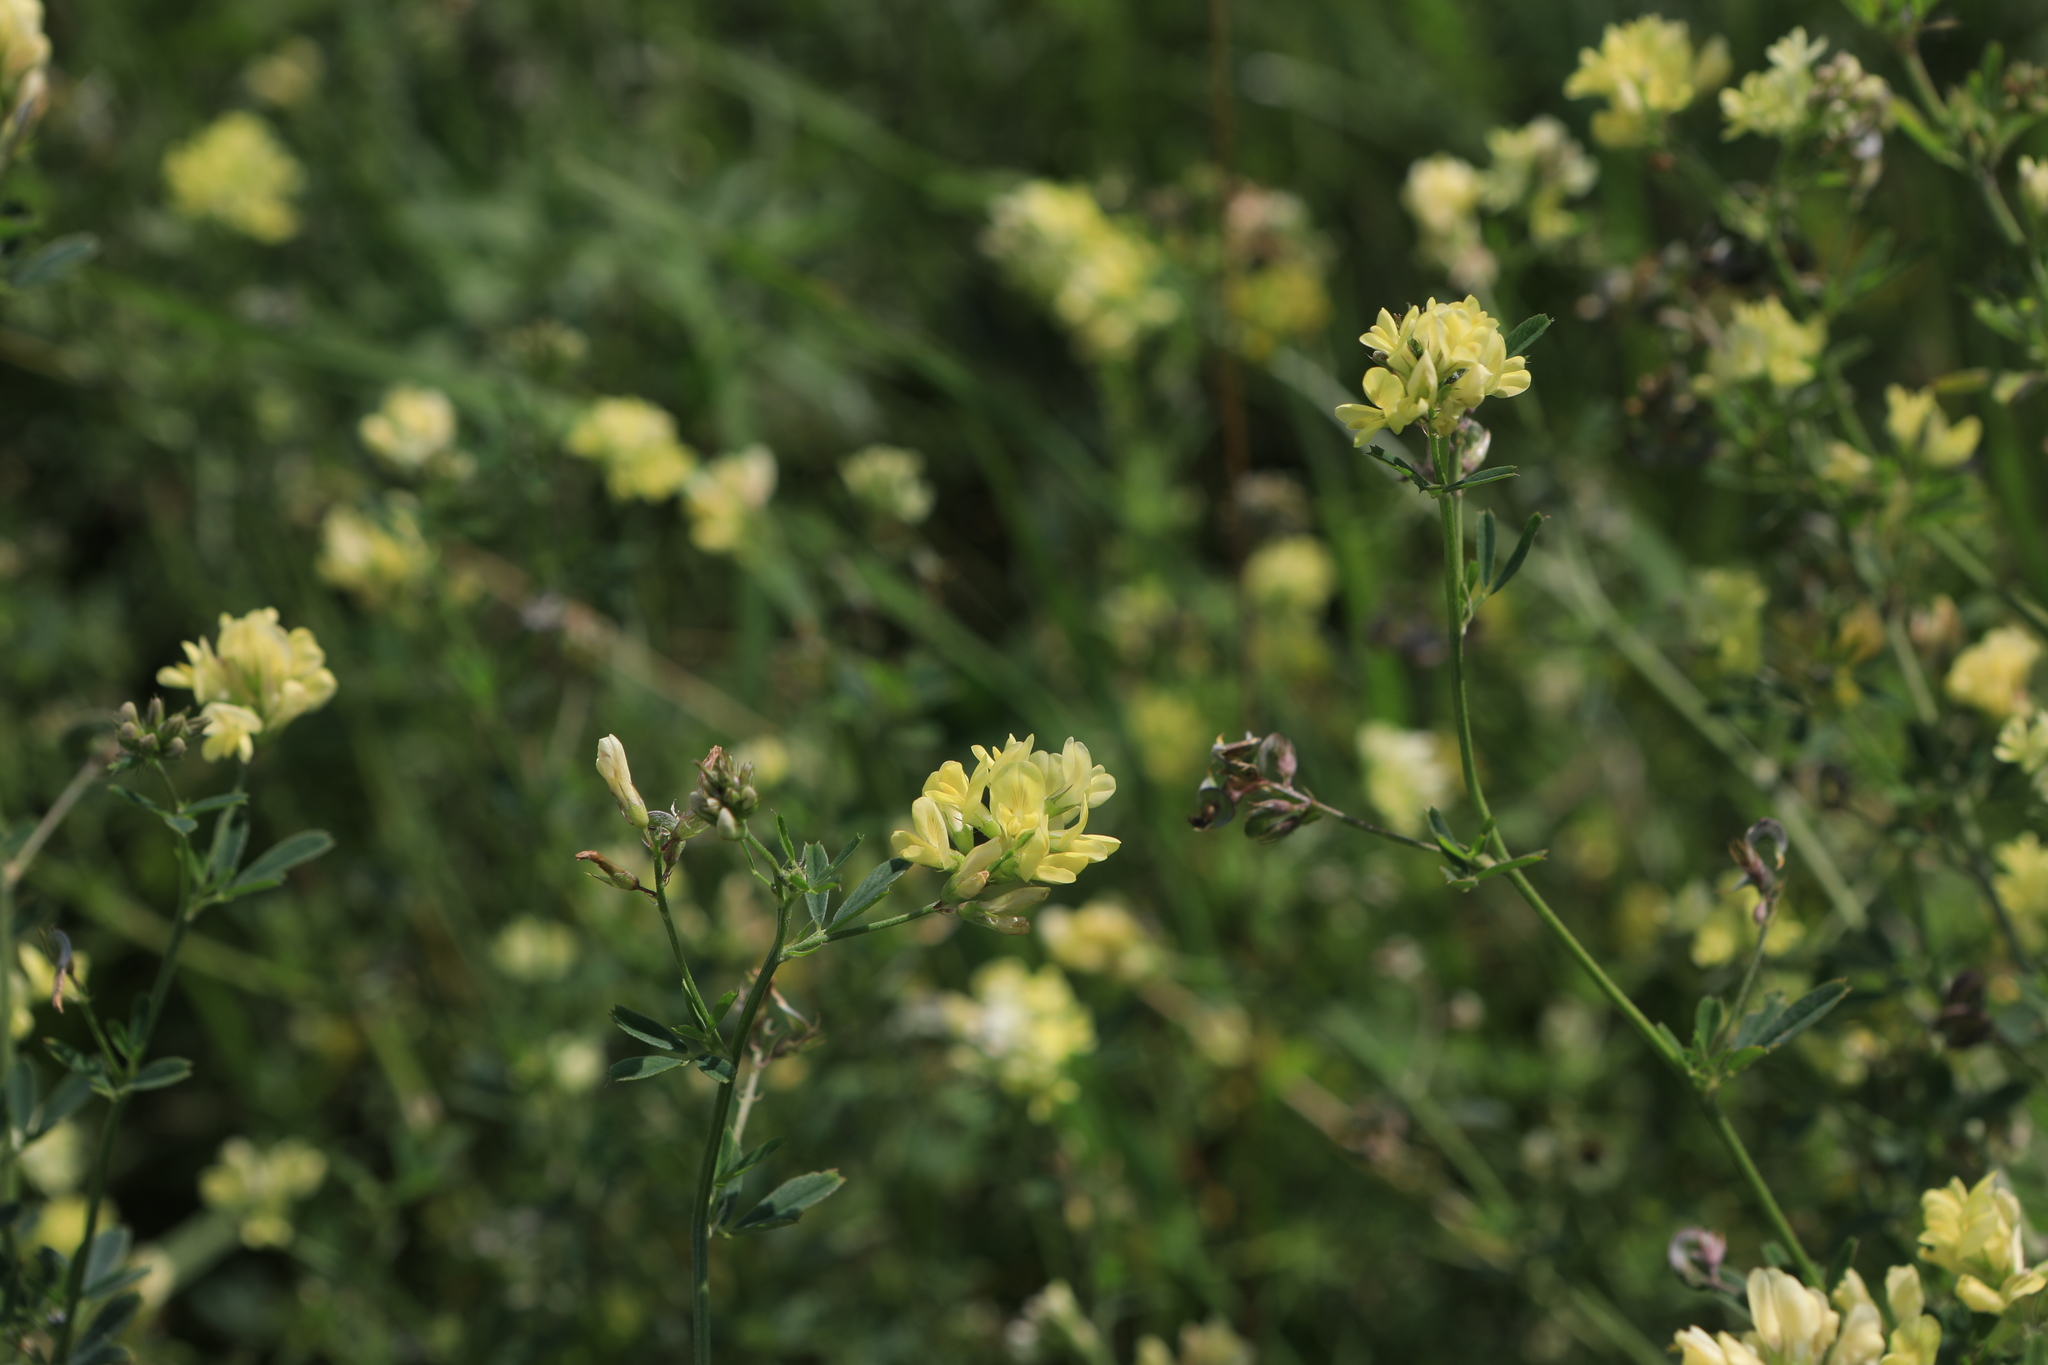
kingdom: Plantae
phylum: Tracheophyta
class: Magnoliopsida
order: Fabales
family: Fabaceae
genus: Medicago
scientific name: Medicago falcata
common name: Sickle medick
